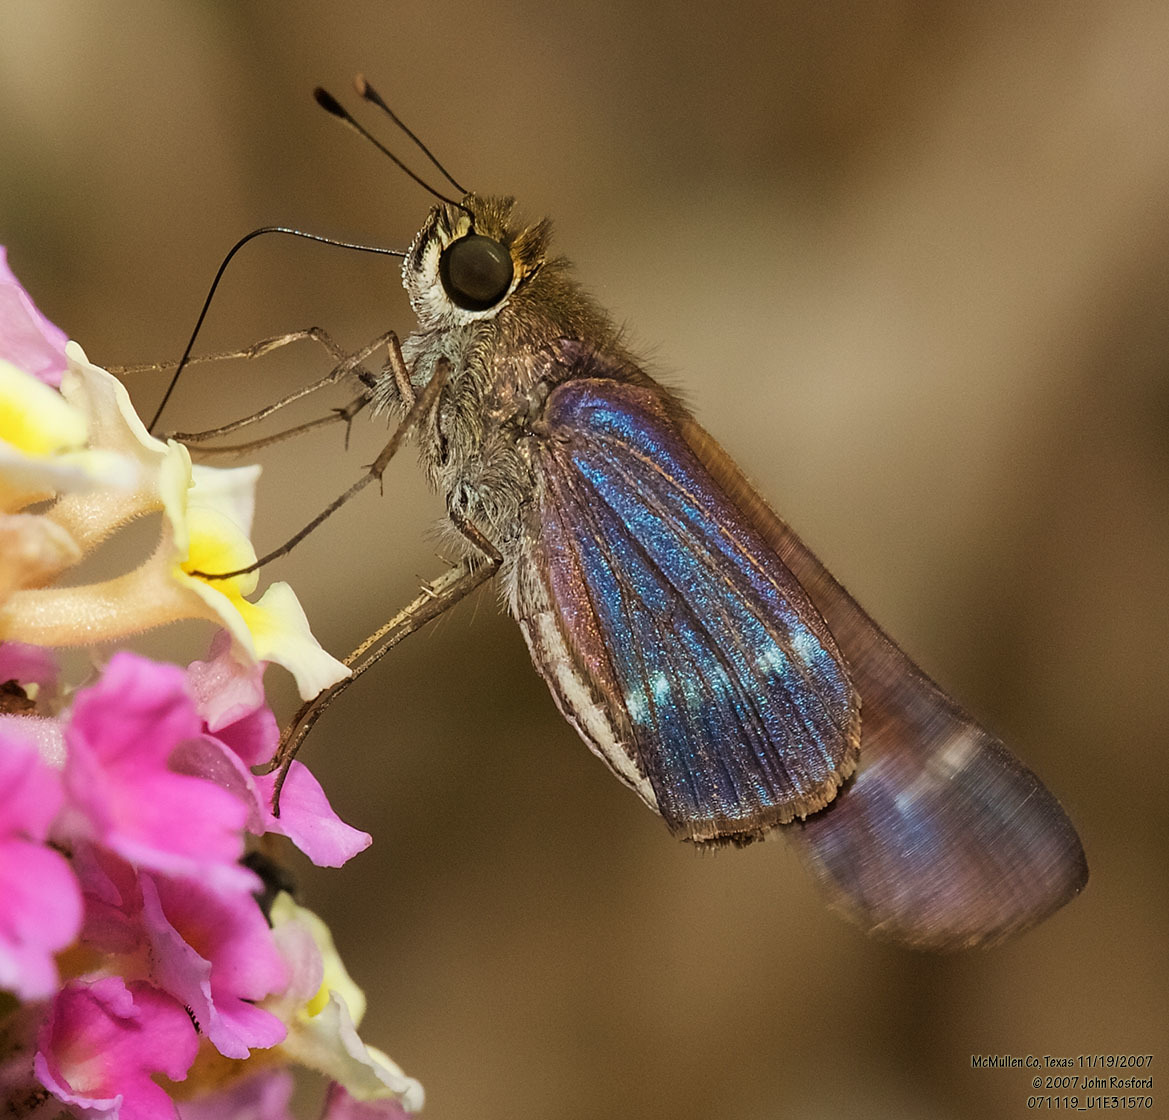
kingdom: Animalia
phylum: Arthropoda
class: Insecta
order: Lepidoptera
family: Hesperiidae
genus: Turesis
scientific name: Turesis lucas
